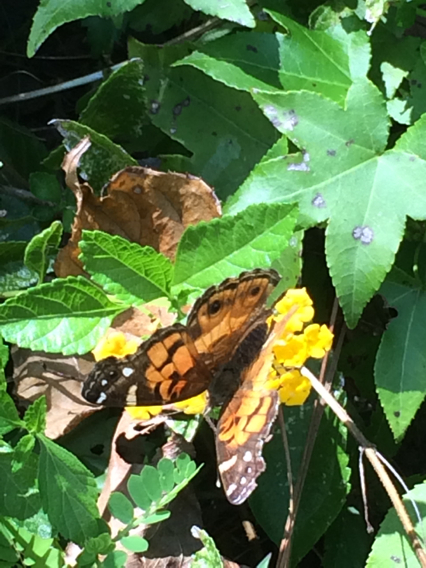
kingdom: Animalia
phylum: Arthropoda
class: Insecta
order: Lepidoptera
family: Nymphalidae
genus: Vanessa
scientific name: Vanessa virginiensis
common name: American lady
